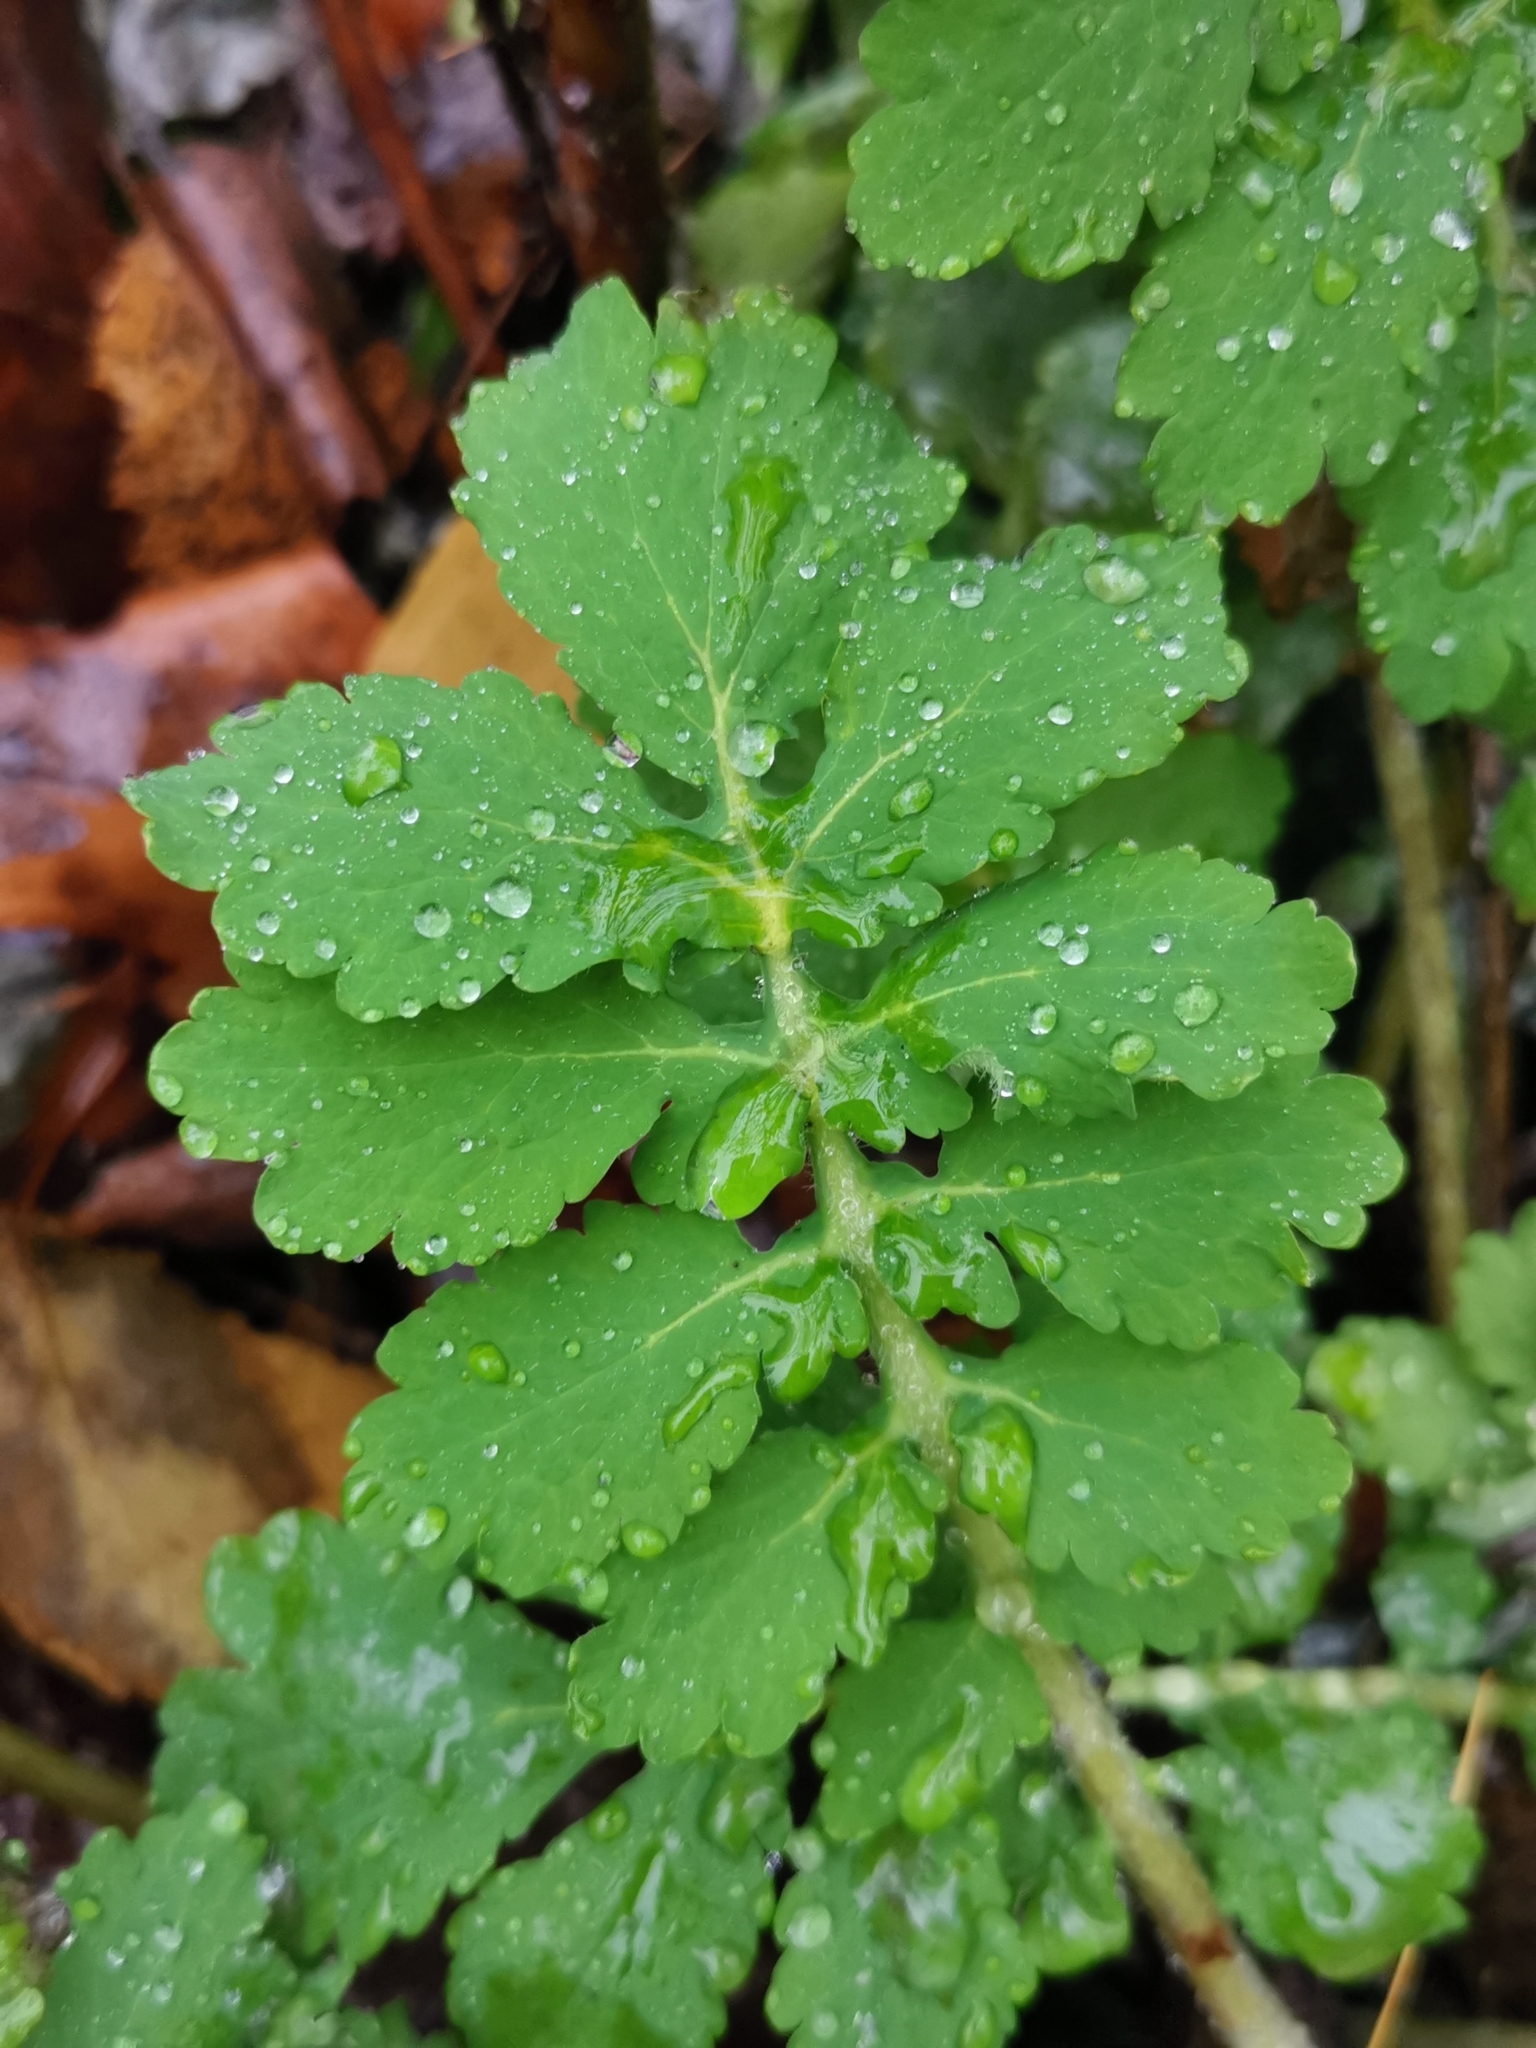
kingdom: Plantae
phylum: Tracheophyta
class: Magnoliopsida
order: Ranunculales
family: Papaveraceae
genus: Chelidonium
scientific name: Chelidonium majus
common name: Greater celandine
